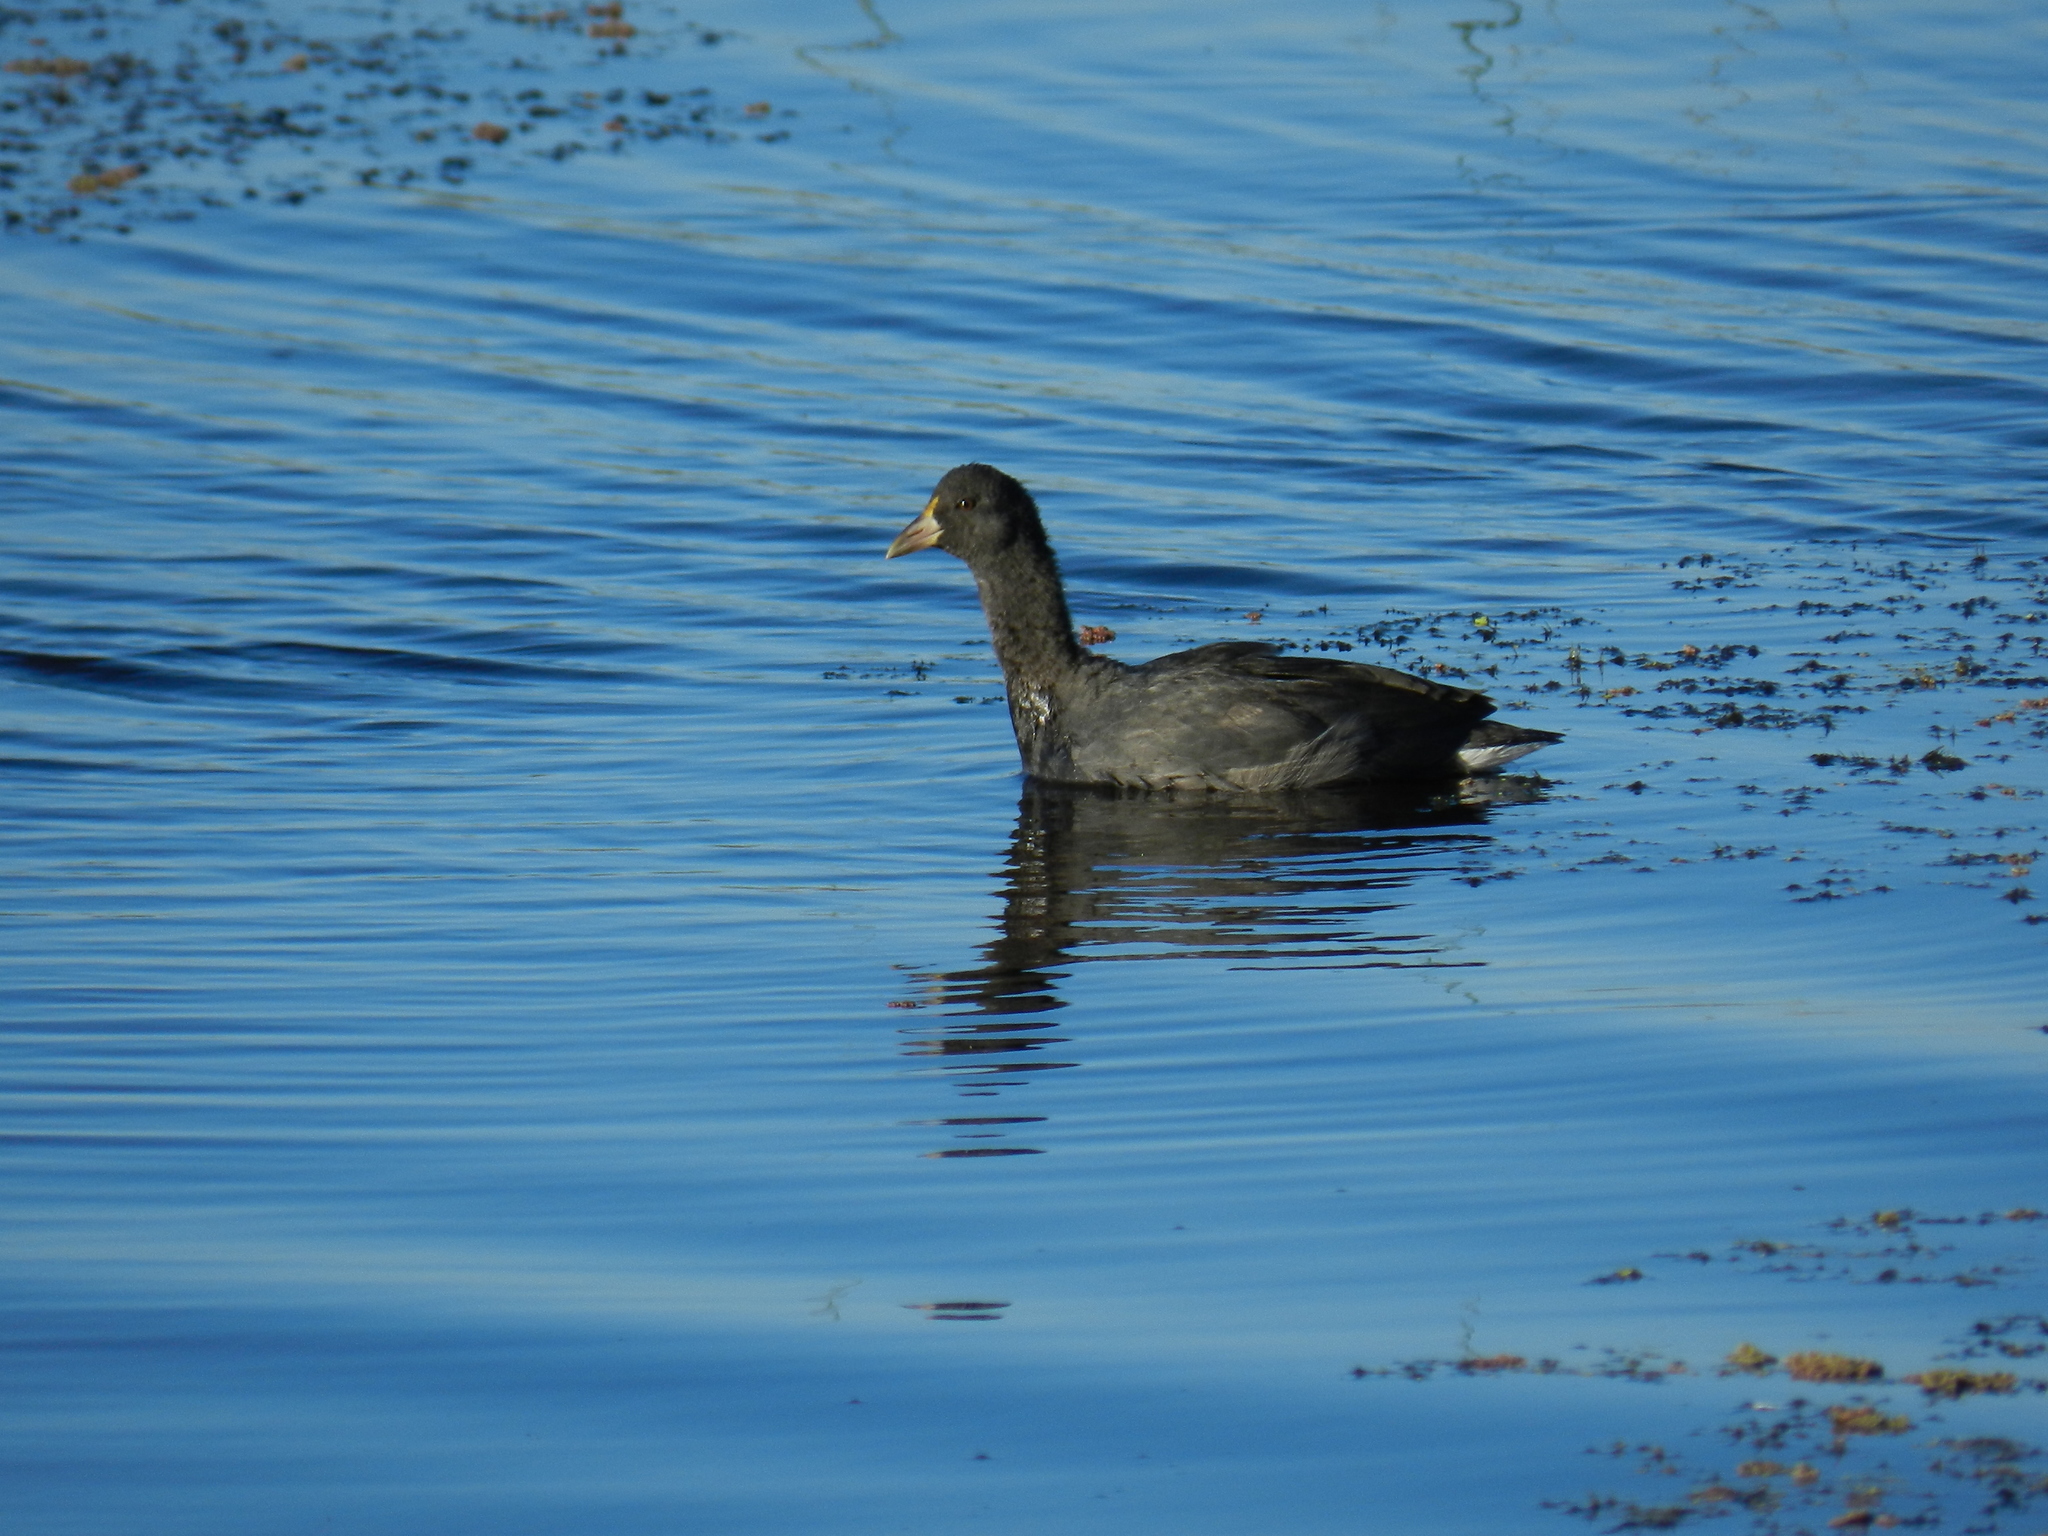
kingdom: Animalia
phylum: Chordata
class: Aves
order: Gruiformes
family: Rallidae
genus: Fulica
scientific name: Fulica leucoptera
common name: White-winged coot
